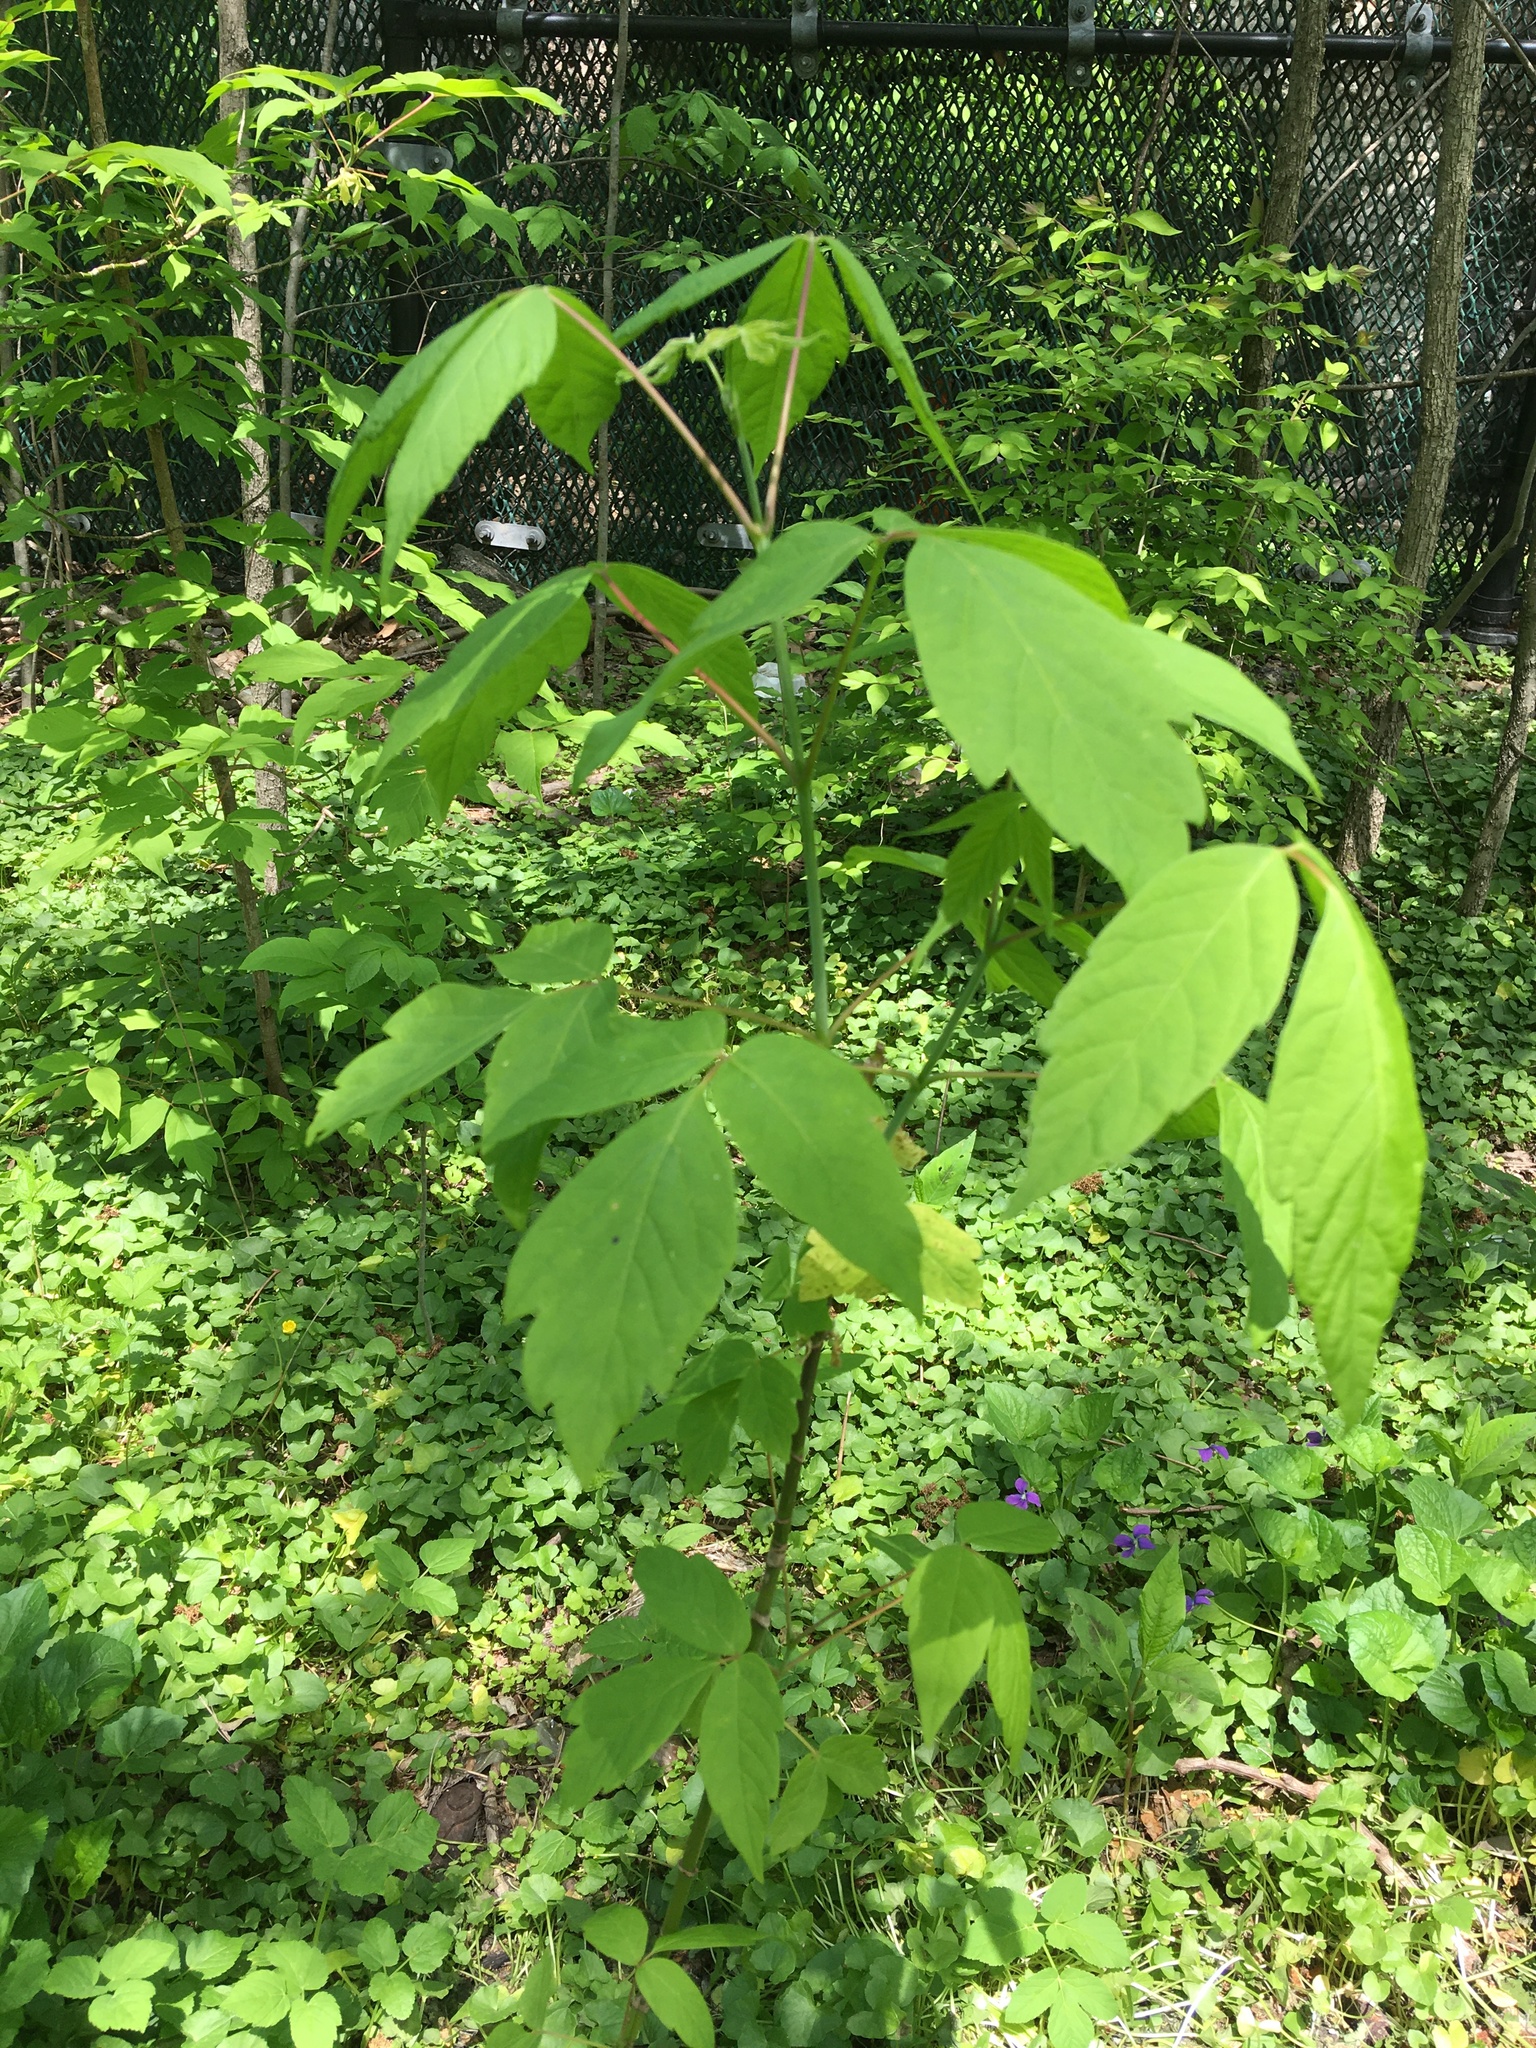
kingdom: Plantae
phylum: Tracheophyta
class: Magnoliopsida
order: Sapindales
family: Sapindaceae
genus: Acer
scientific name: Acer negundo
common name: Ashleaf maple
